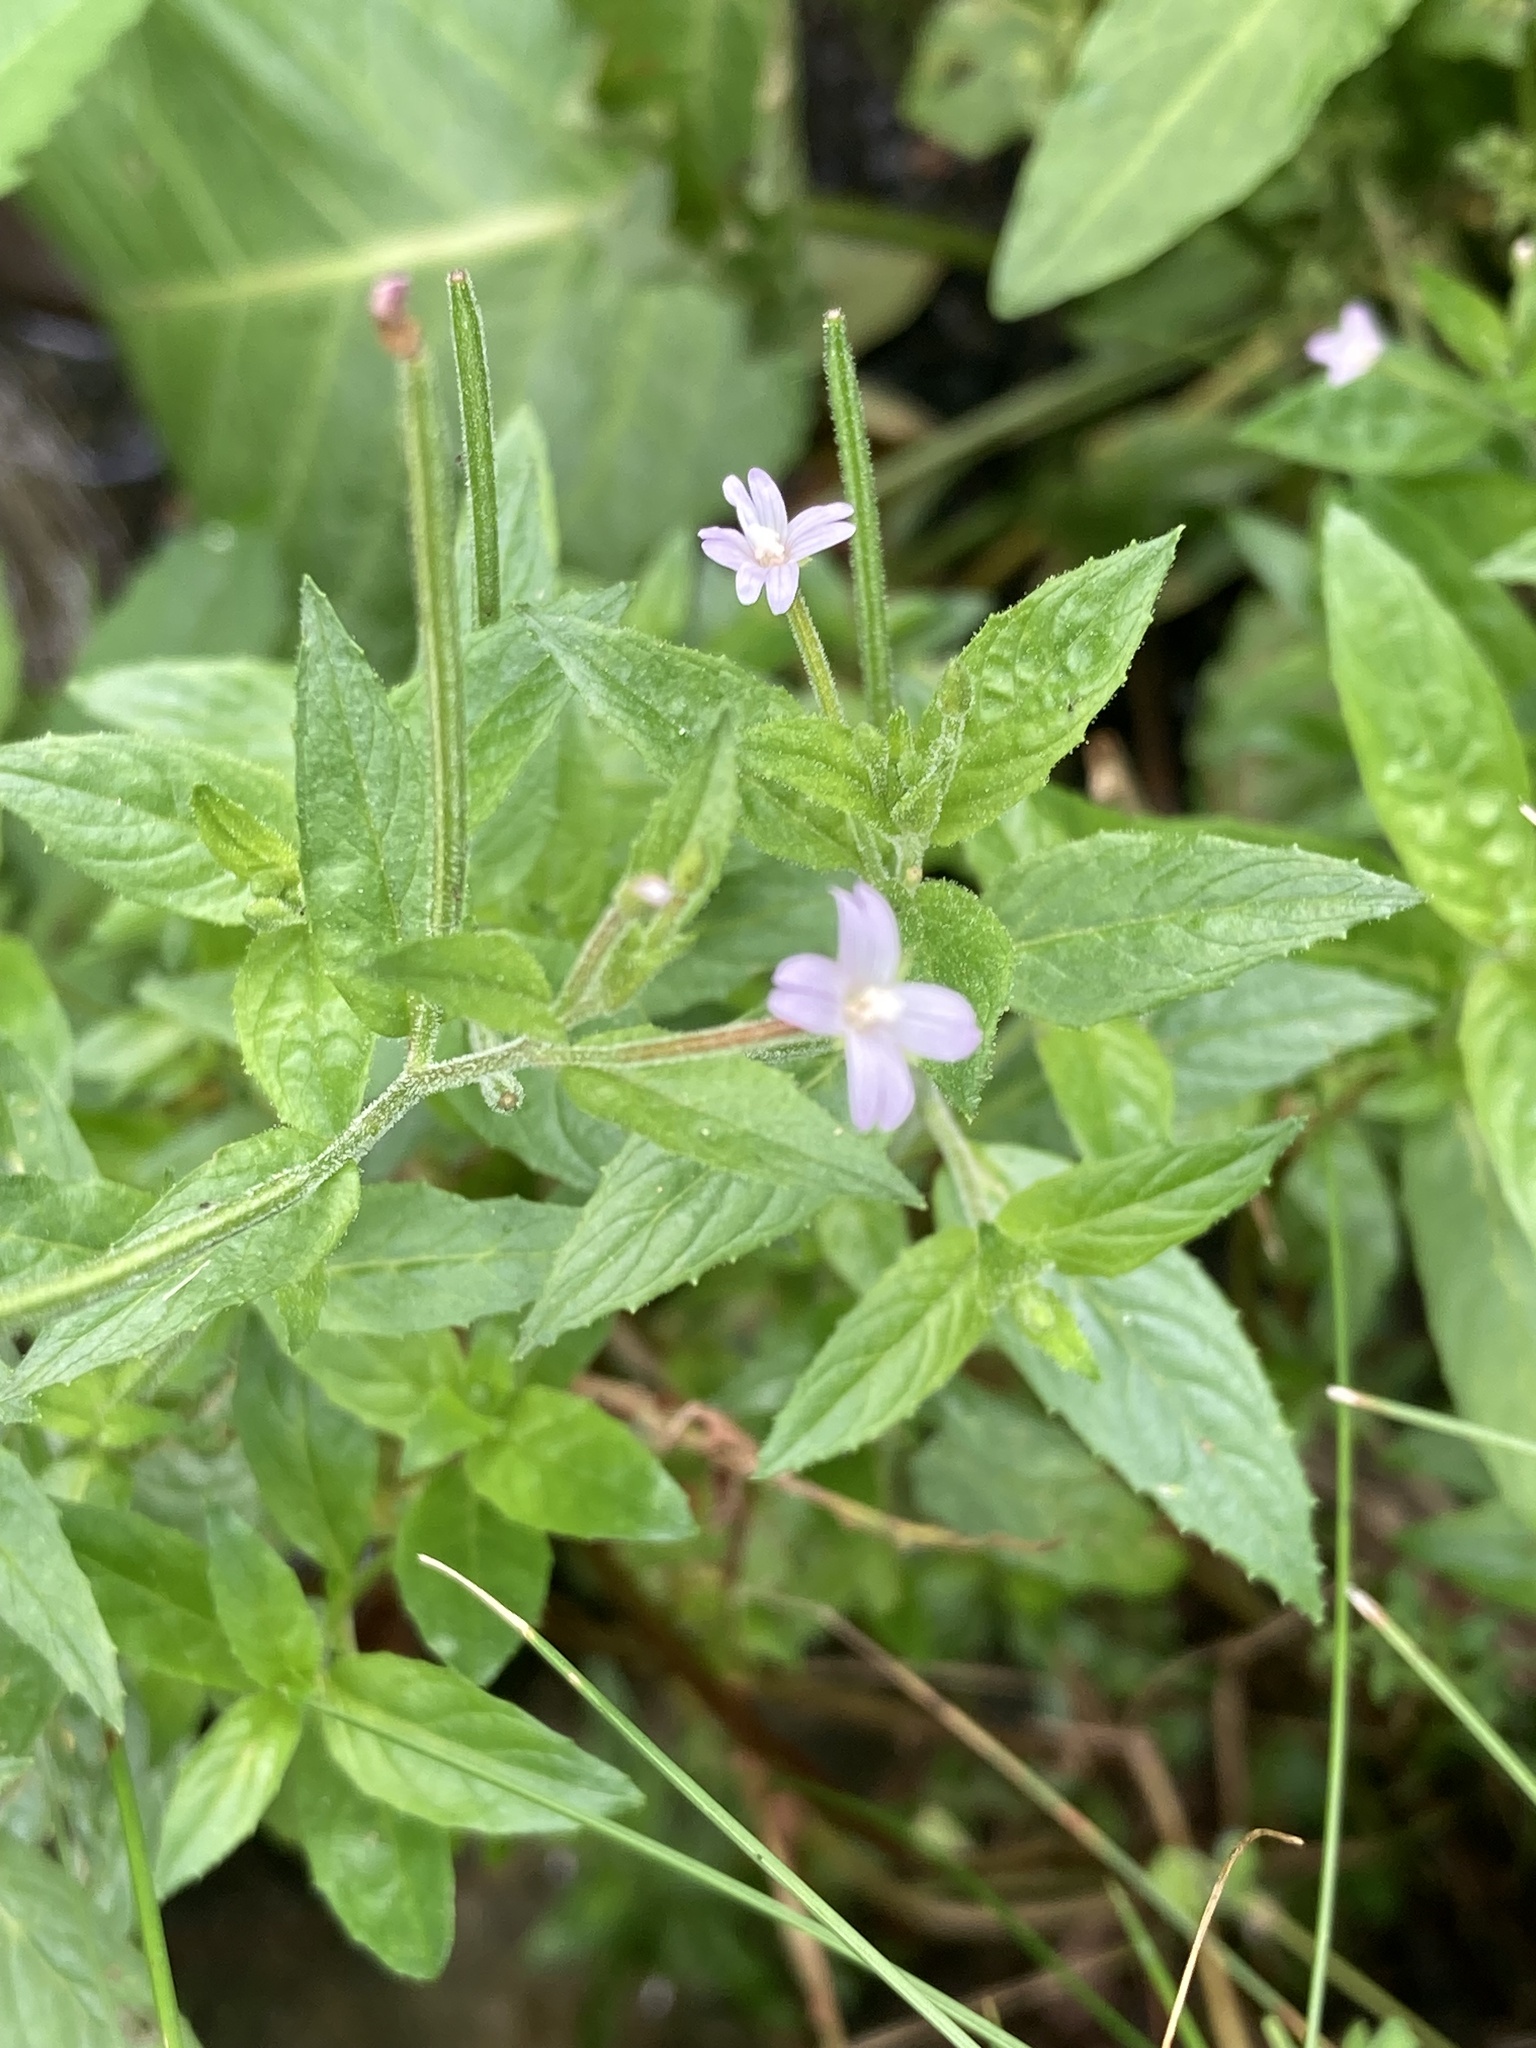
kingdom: Plantae
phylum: Tracheophyta
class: Magnoliopsida
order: Myrtales
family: Onagraceae
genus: Epilobium
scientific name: Epilobium ciliatum
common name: American willowherb
